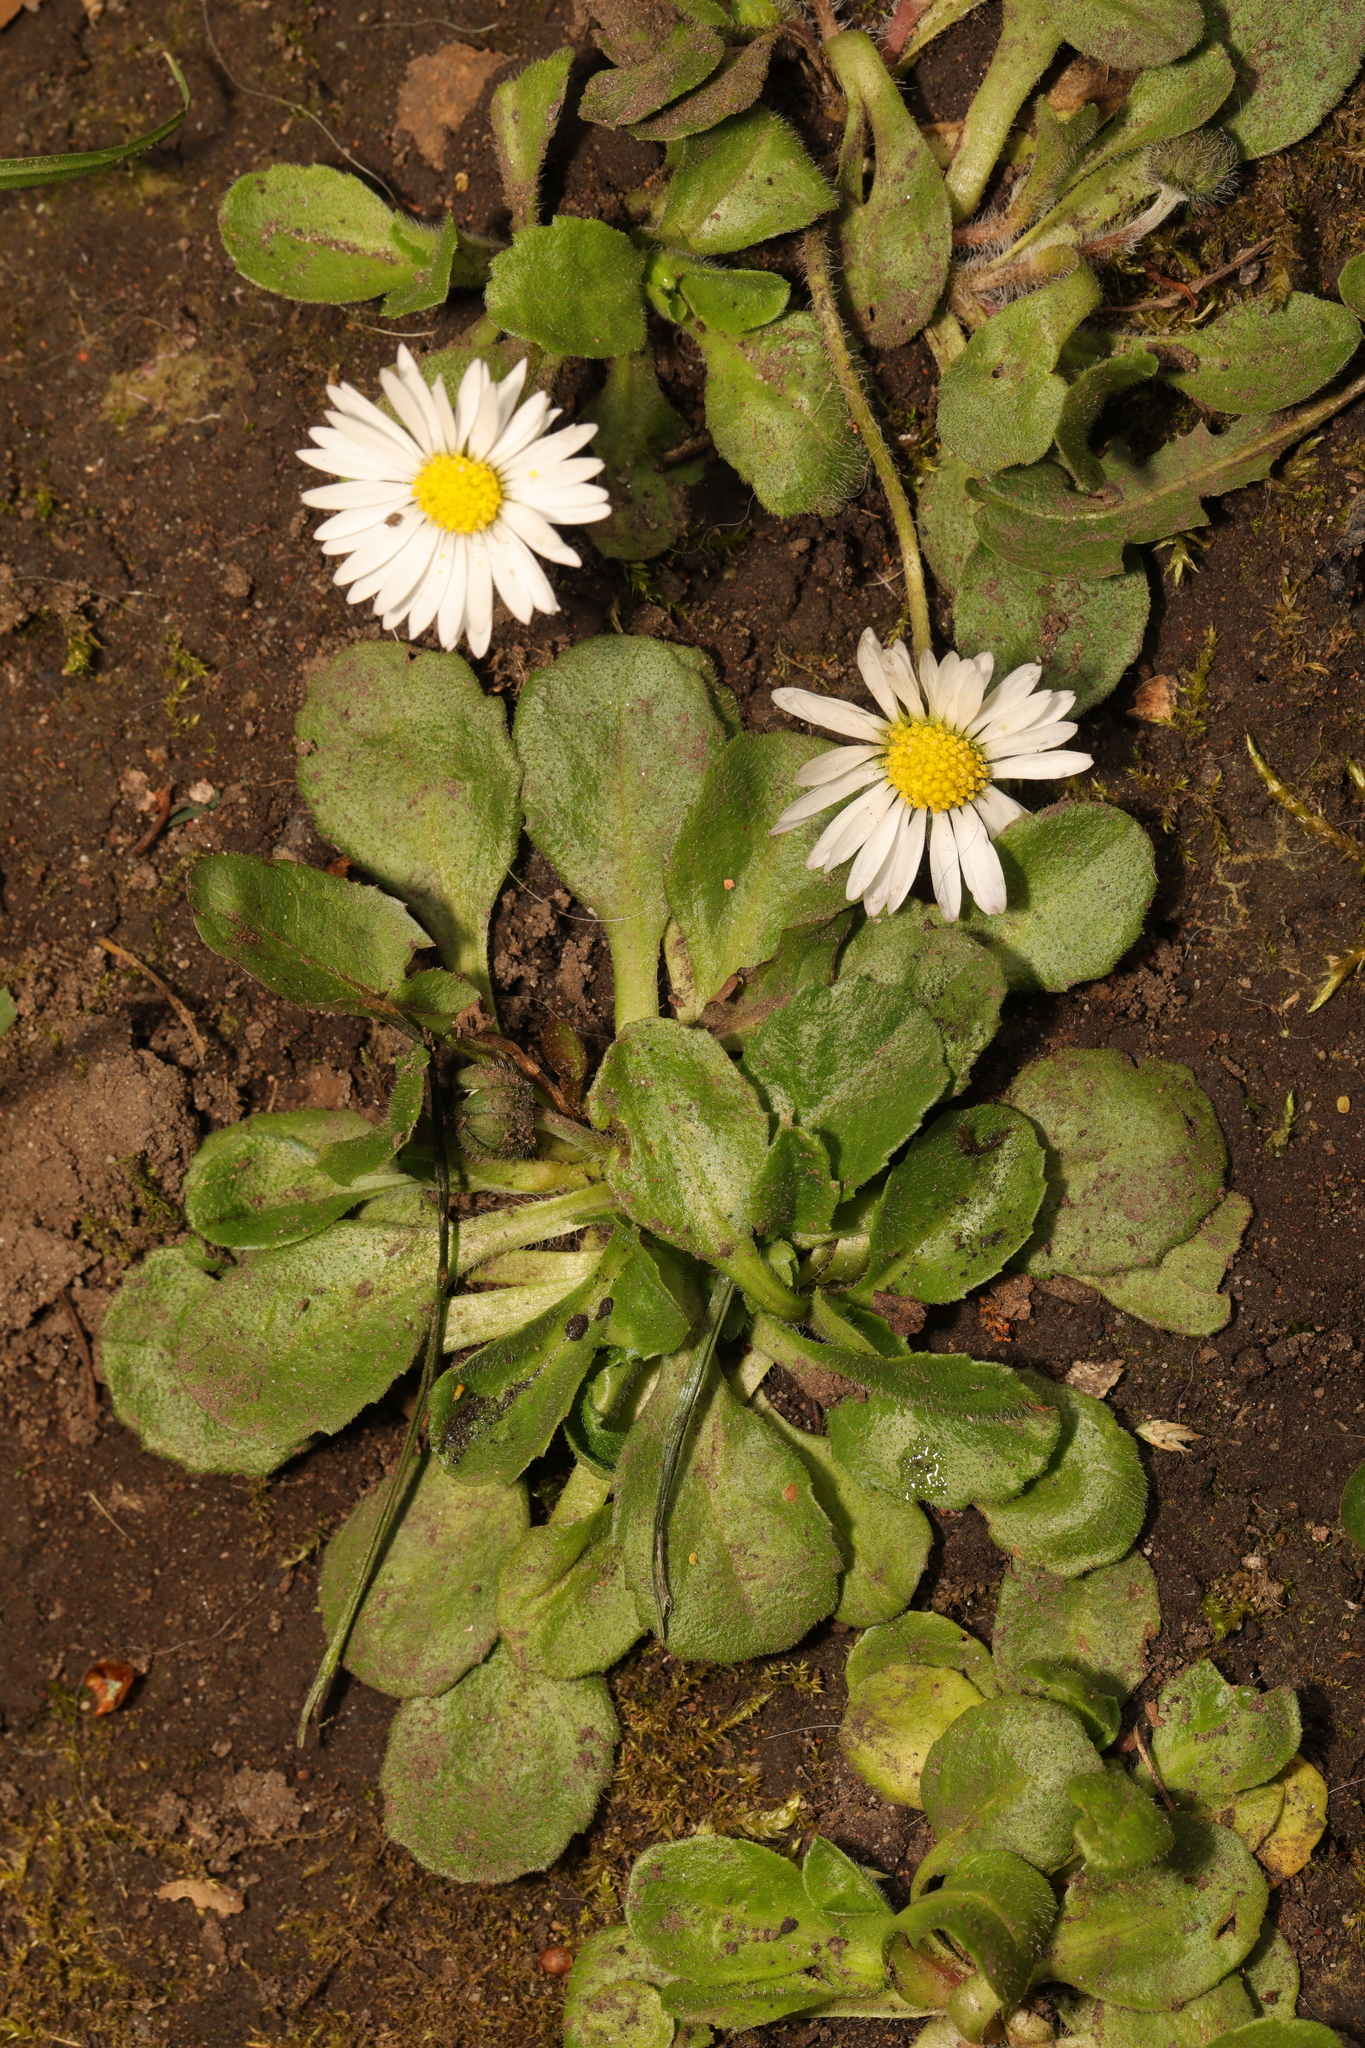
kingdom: Plantae
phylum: Tracheophyta
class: Magnoliopsida
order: Asterales
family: Asteraceae
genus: Bellis
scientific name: Bellis perennis
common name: Lawndaisy
